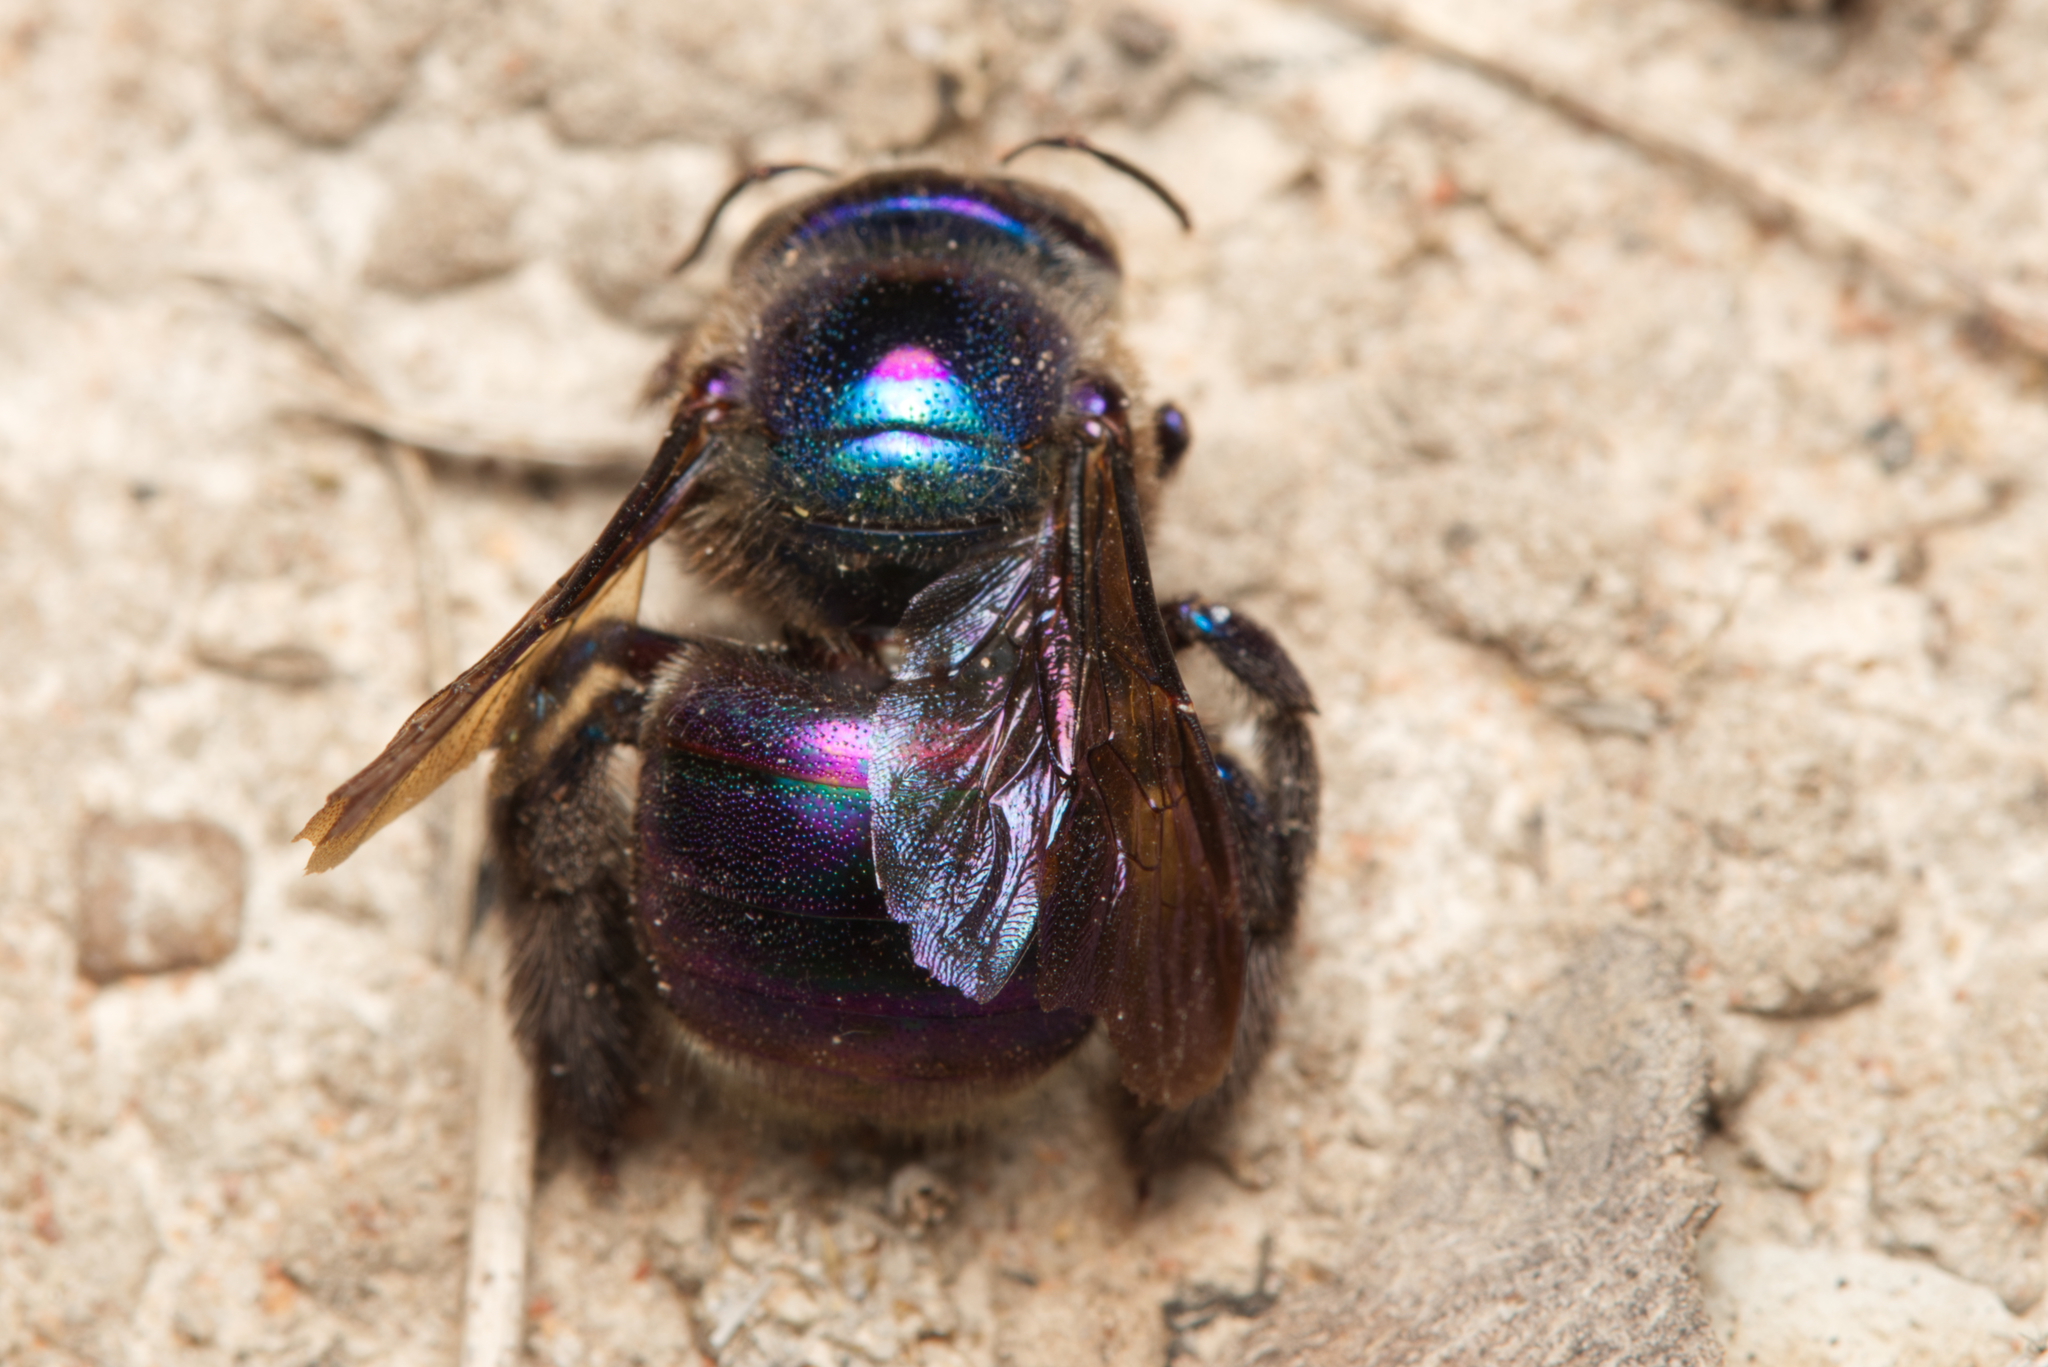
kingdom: Animalia
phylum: Arthropoda
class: Insecta
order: Hymenoptera
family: Apidae
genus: Xylocopa
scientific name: Xylocopa bombylans
